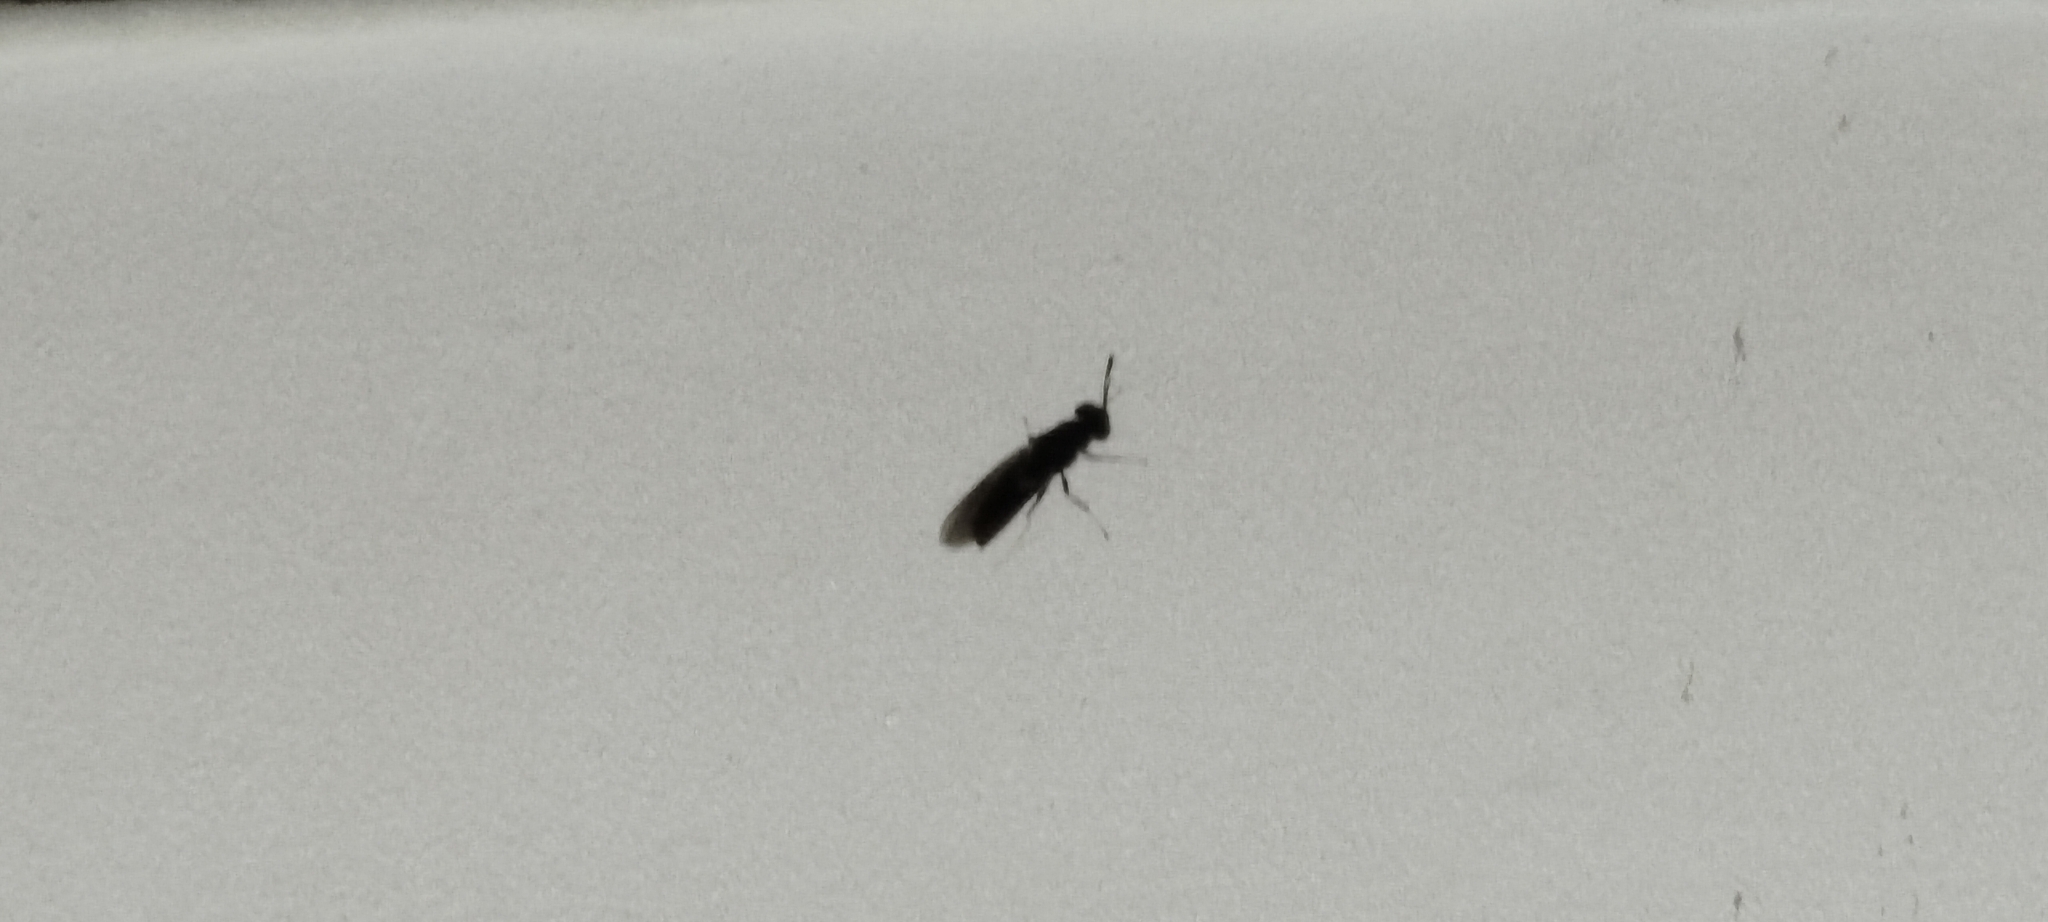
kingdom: Animalia
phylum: Arthropoda
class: Insecta
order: Diptera
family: Stratiomyidae
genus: Hermetia
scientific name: Hermetia illucens
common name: Black soldier fly
